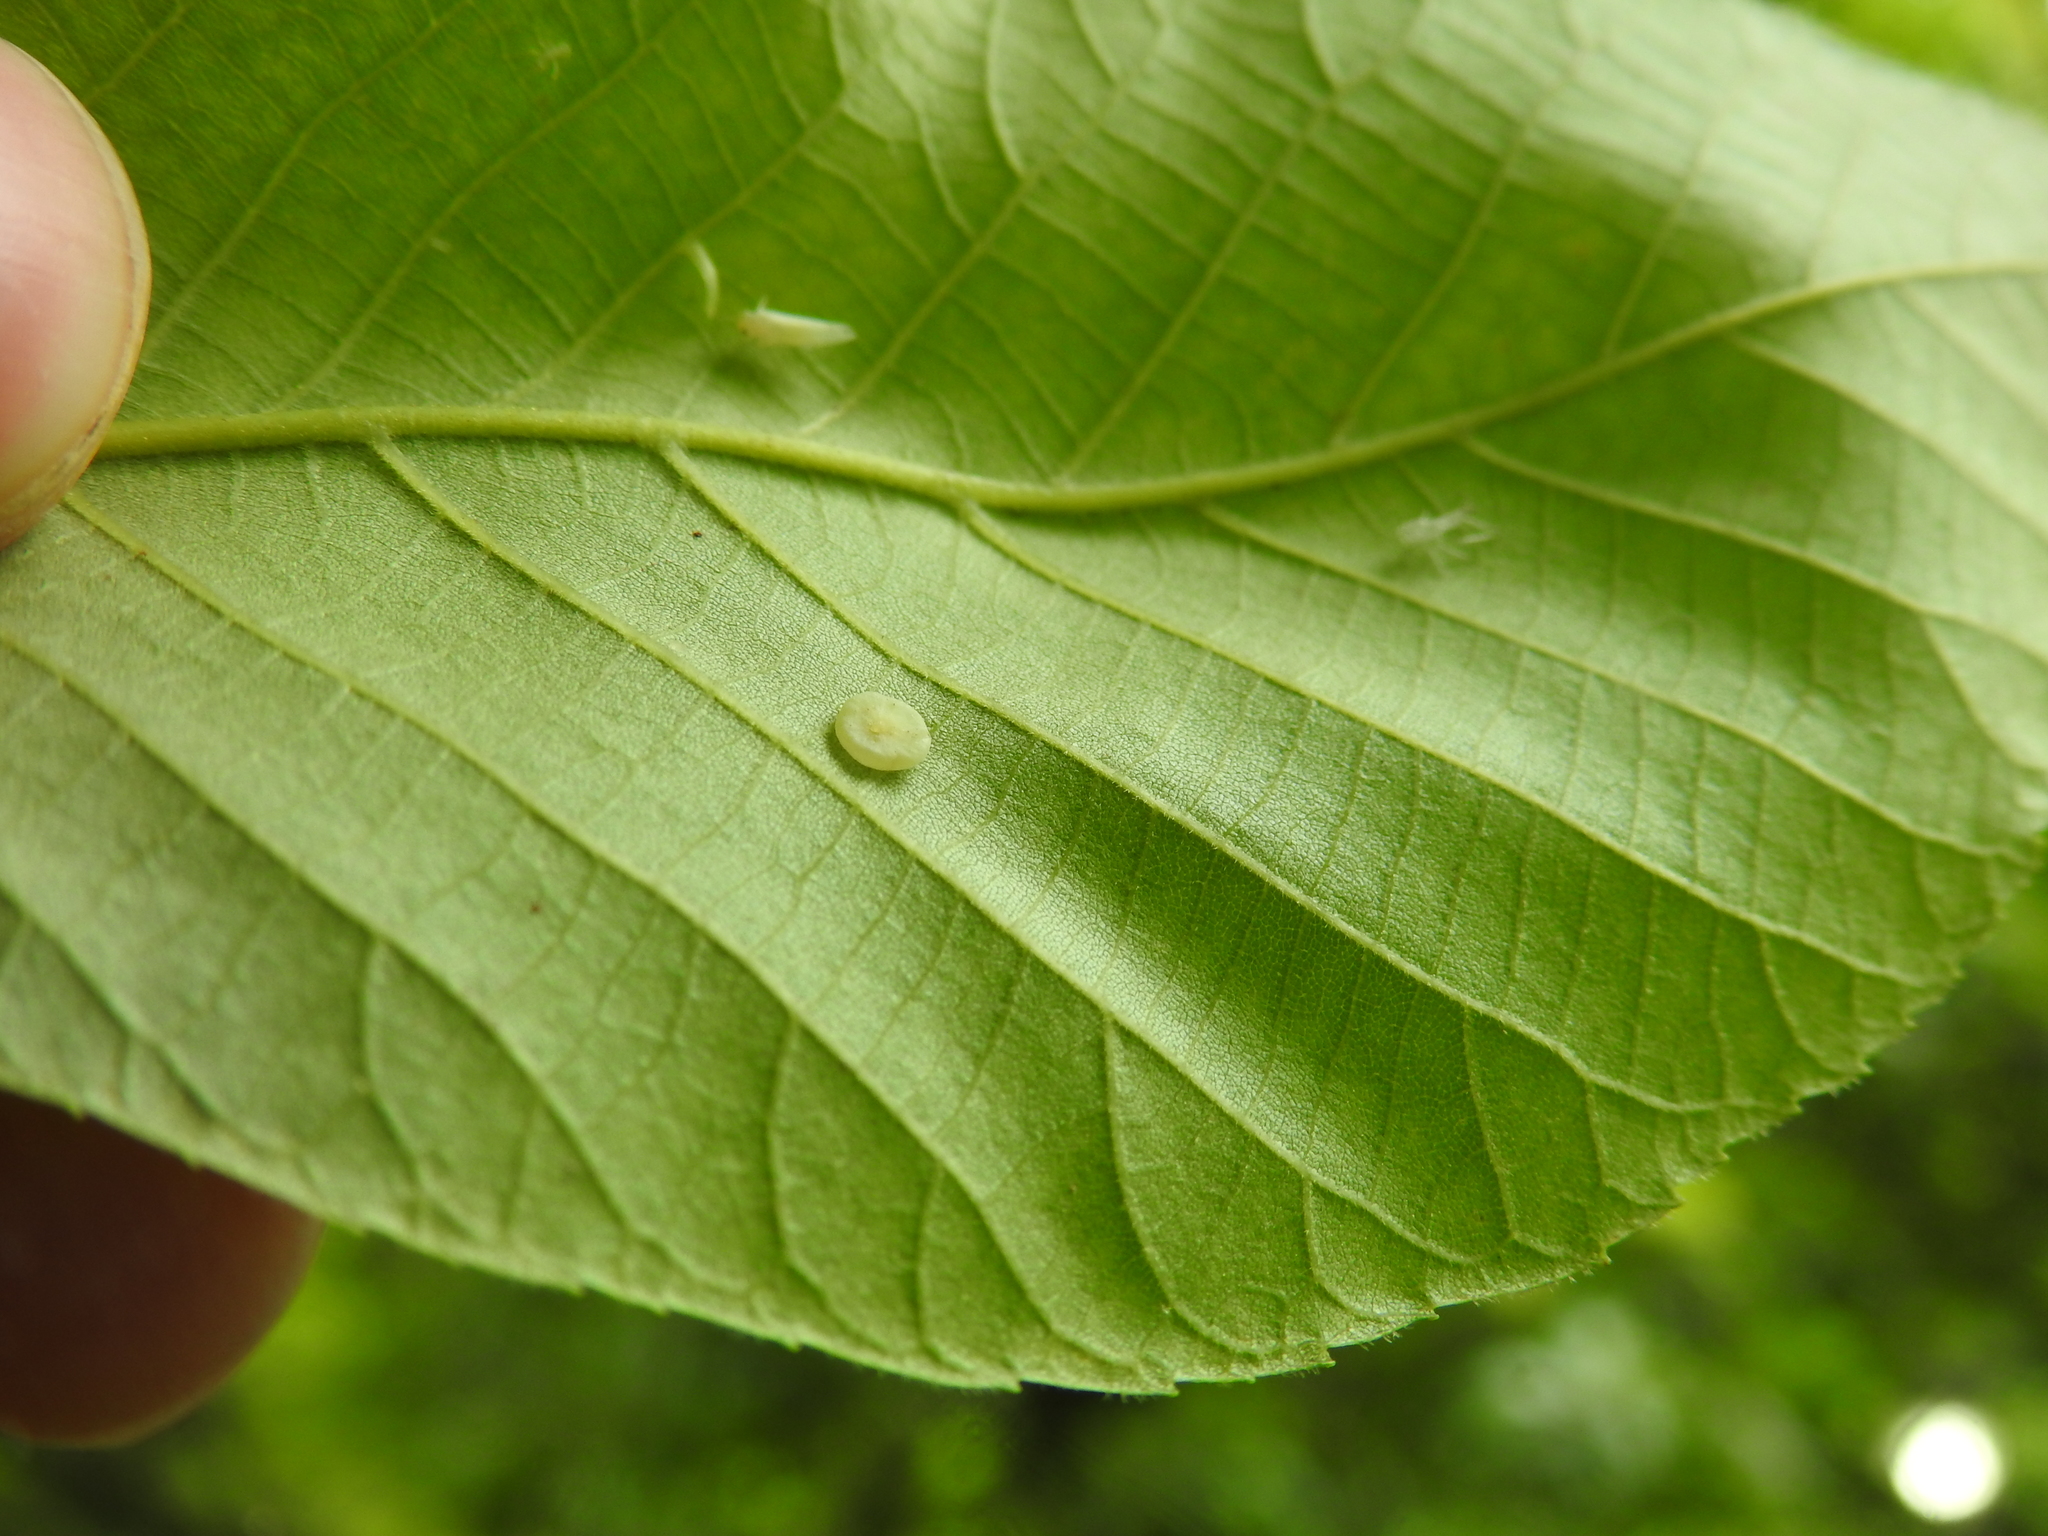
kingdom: Animalia
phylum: Arthropoda
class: Insecta
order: Diptera
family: Cecidomyiidae
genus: Caryomyia
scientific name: Caryomyia biretta
